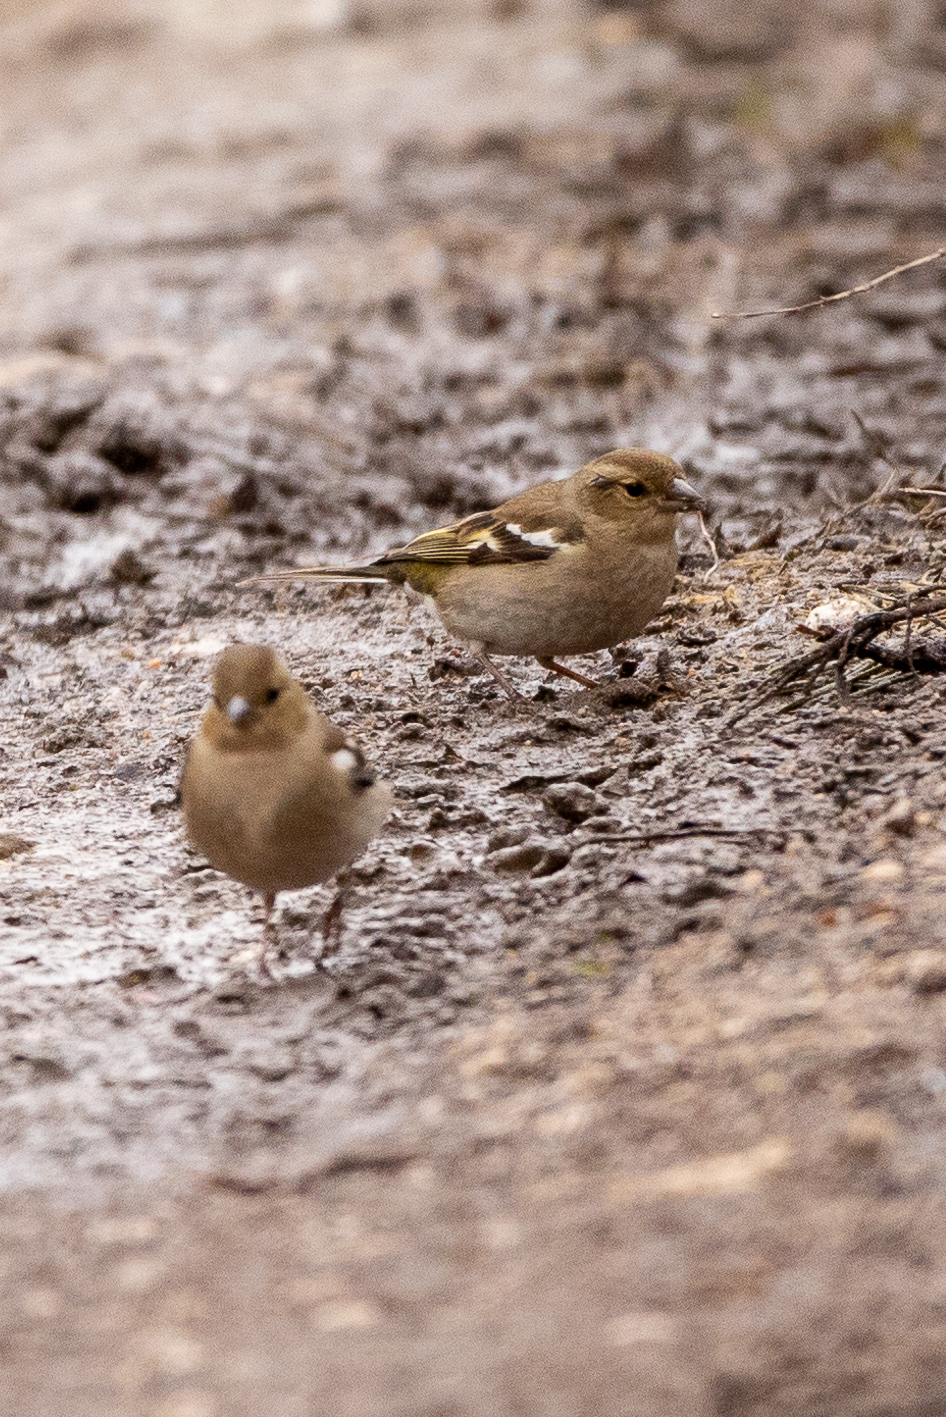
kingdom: Animalia
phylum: Chordata
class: Aves
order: Passeriformes
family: Fringillidae
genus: Fringilla
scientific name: Fringilla coelebs
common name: Common chaffinch
